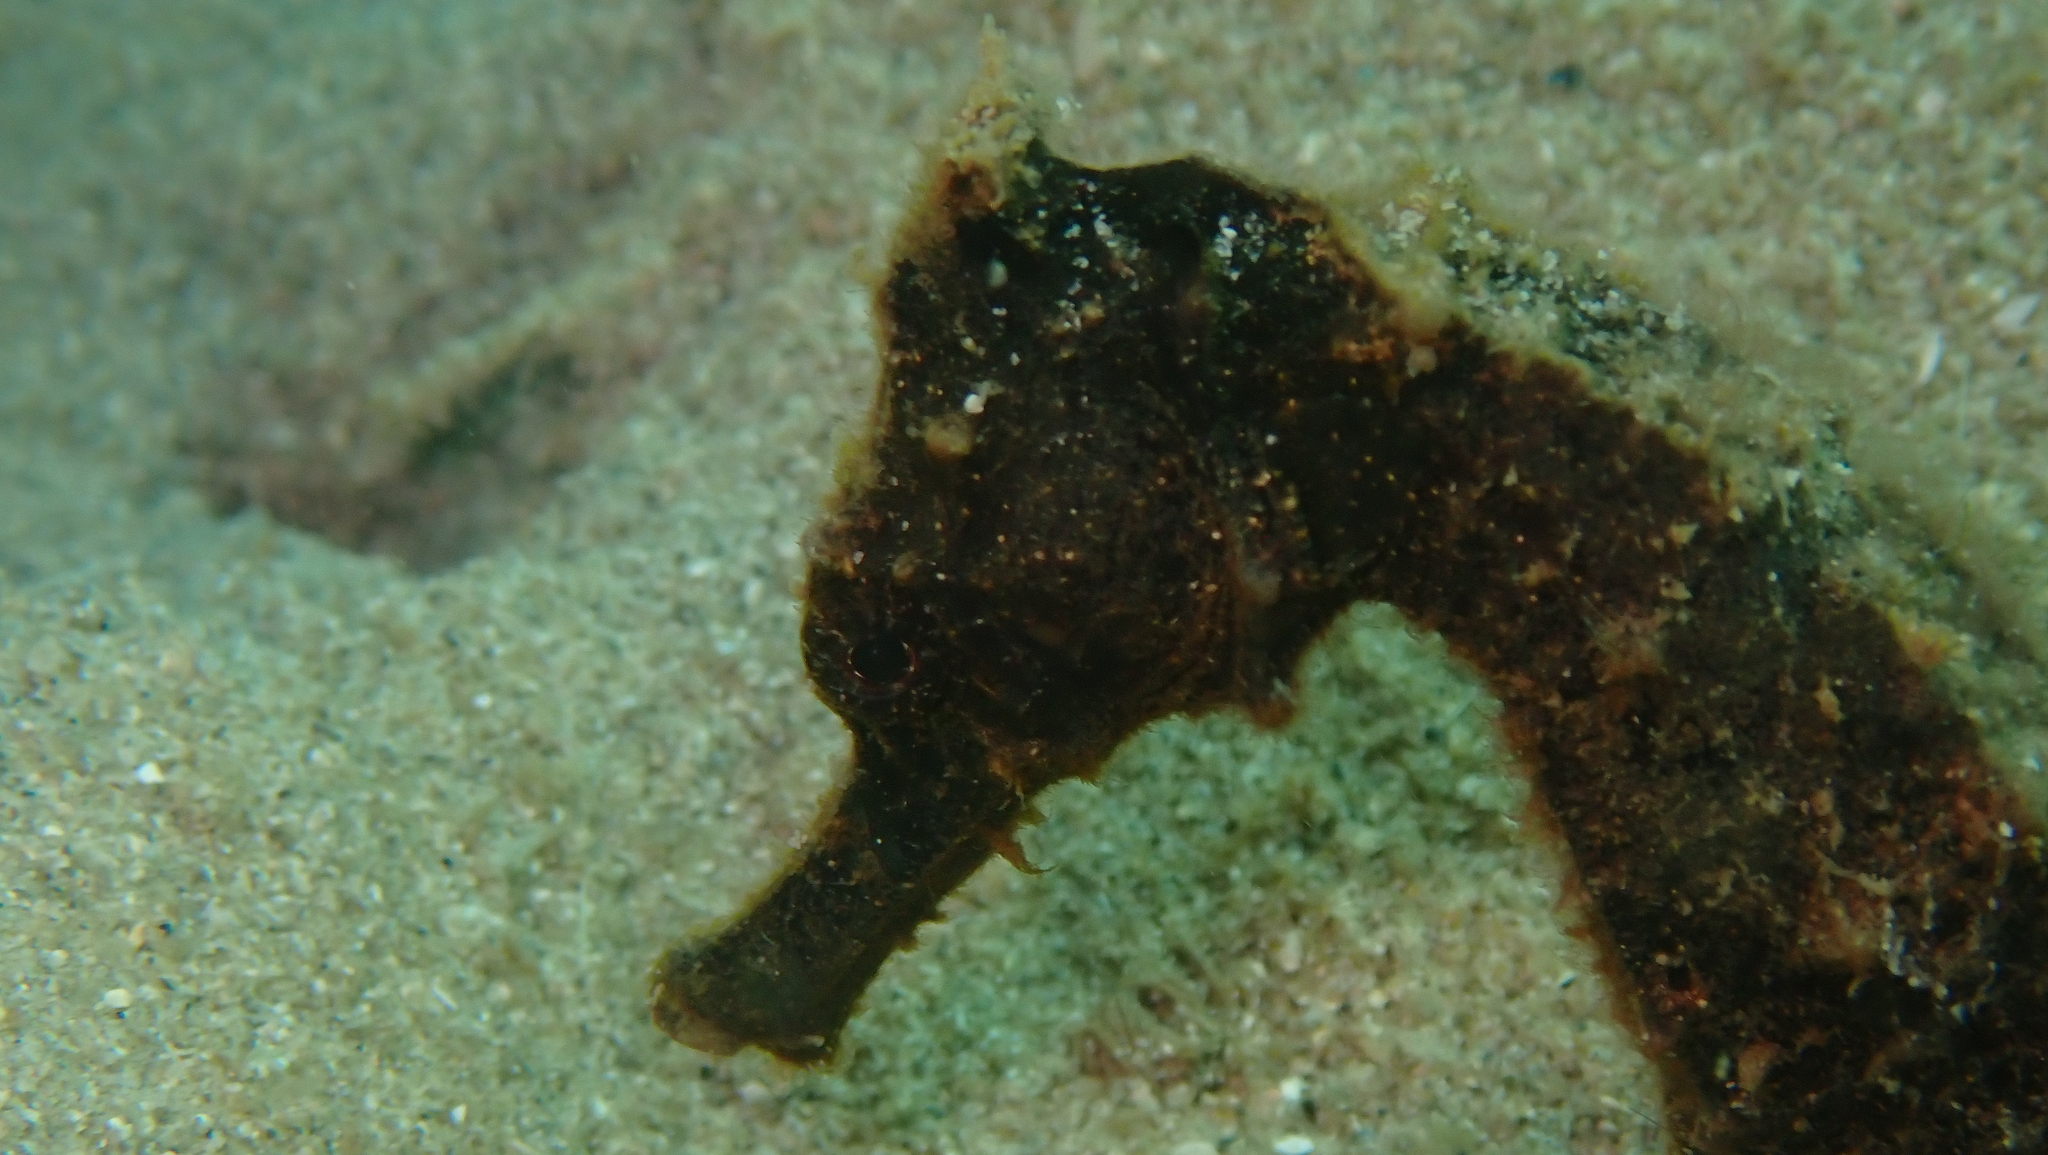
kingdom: Animalia
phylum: Chordata
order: Syngnathiformes
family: Syngnathidae
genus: Hippocampus
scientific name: Hippocampus kuda
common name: Spotted seahorse
